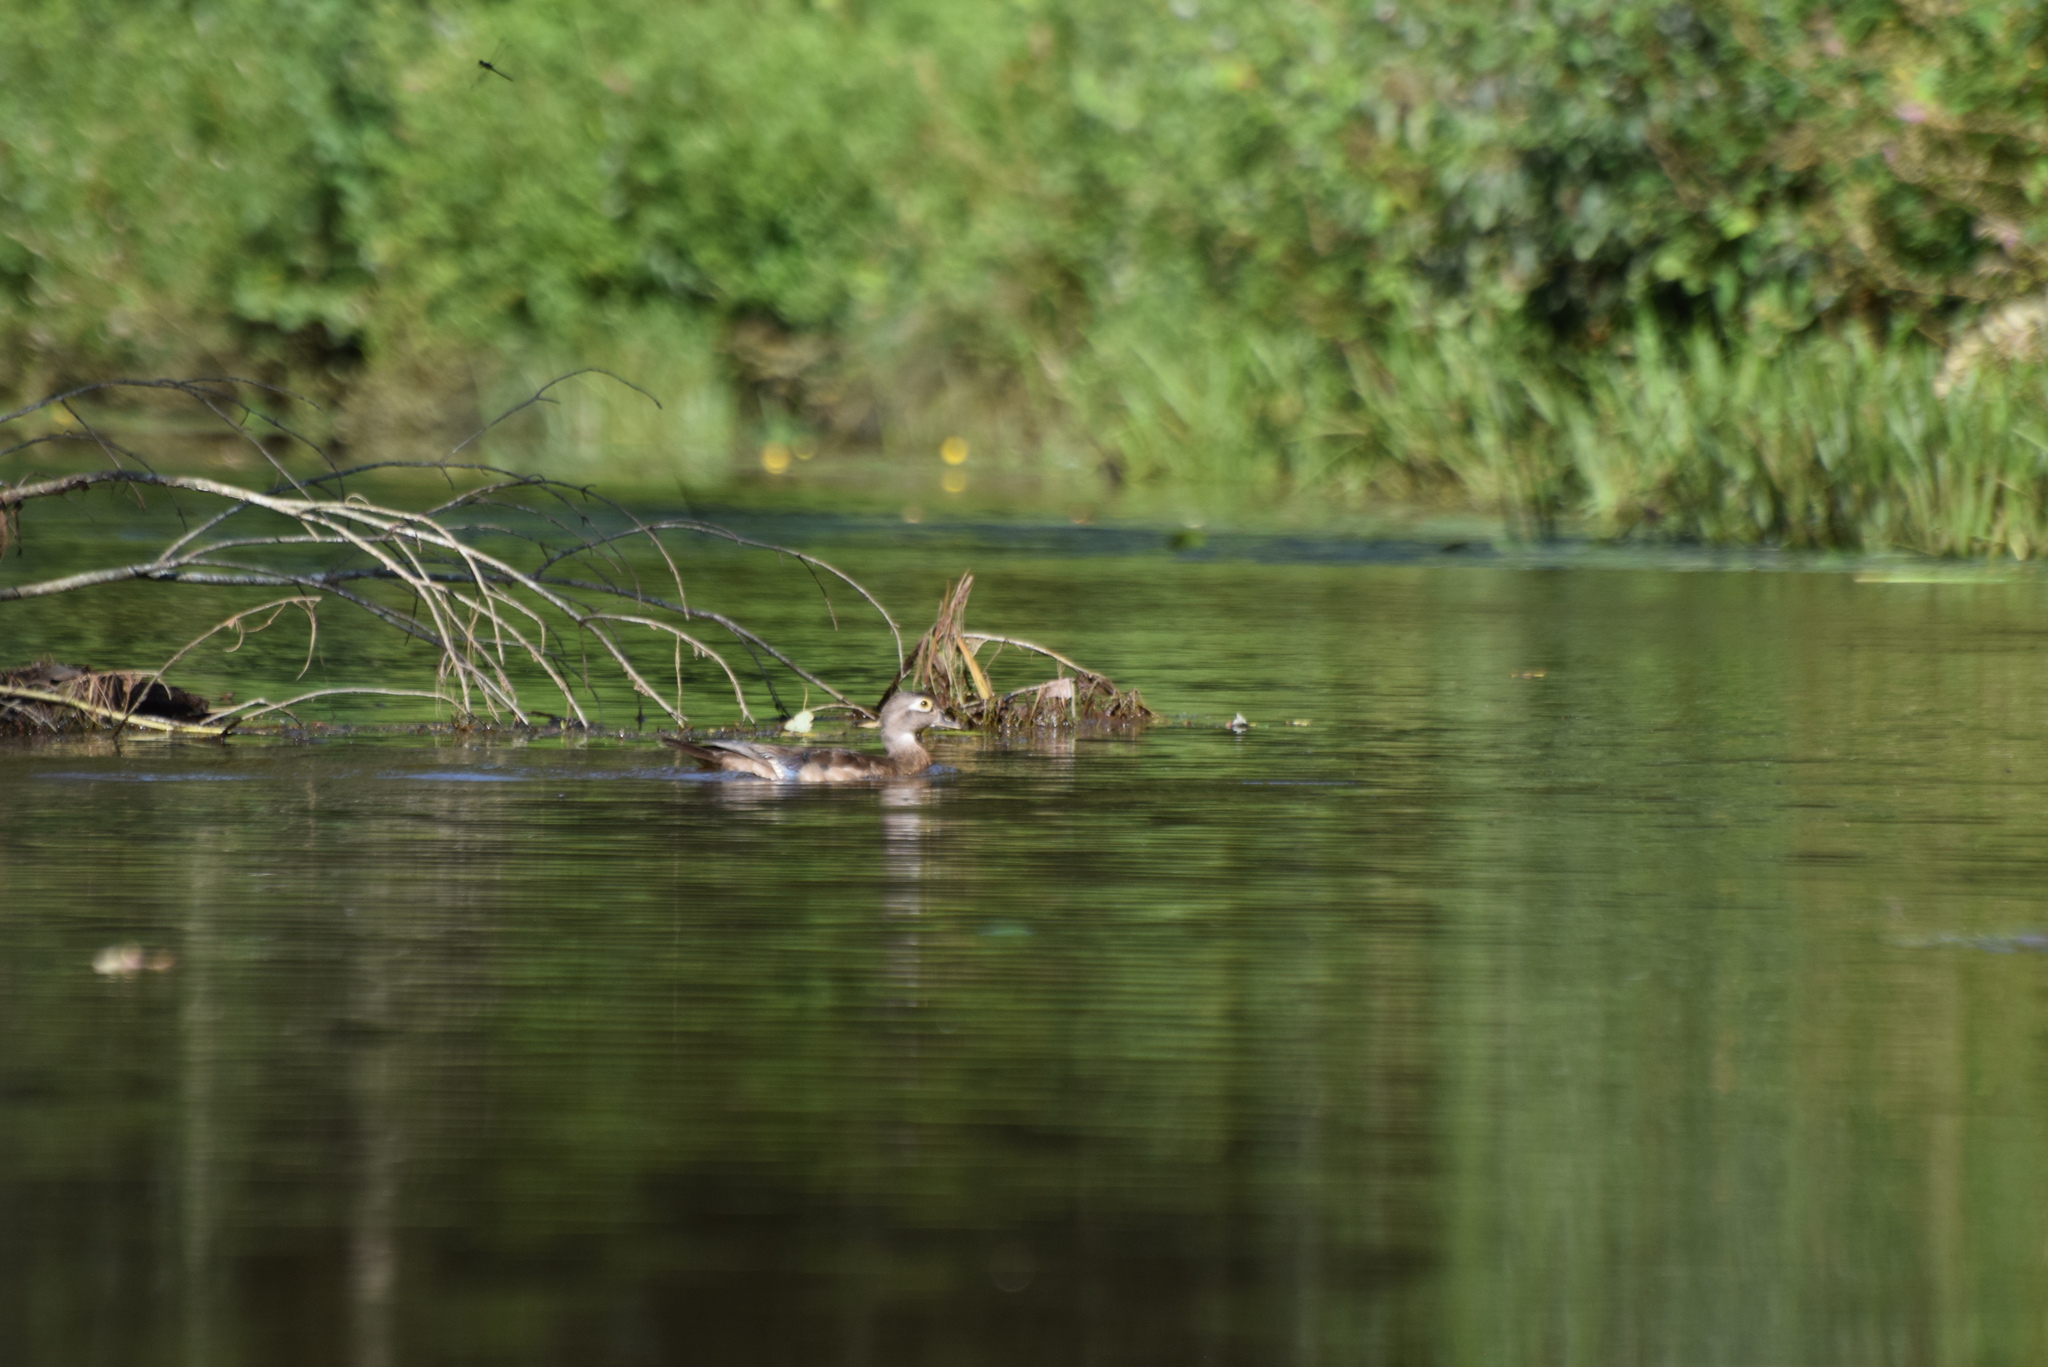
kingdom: Animalia
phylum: Chordata
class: Aves
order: Anseriformes
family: Anatidae
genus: Aix
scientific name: Aix sponsa
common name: Wood duck
